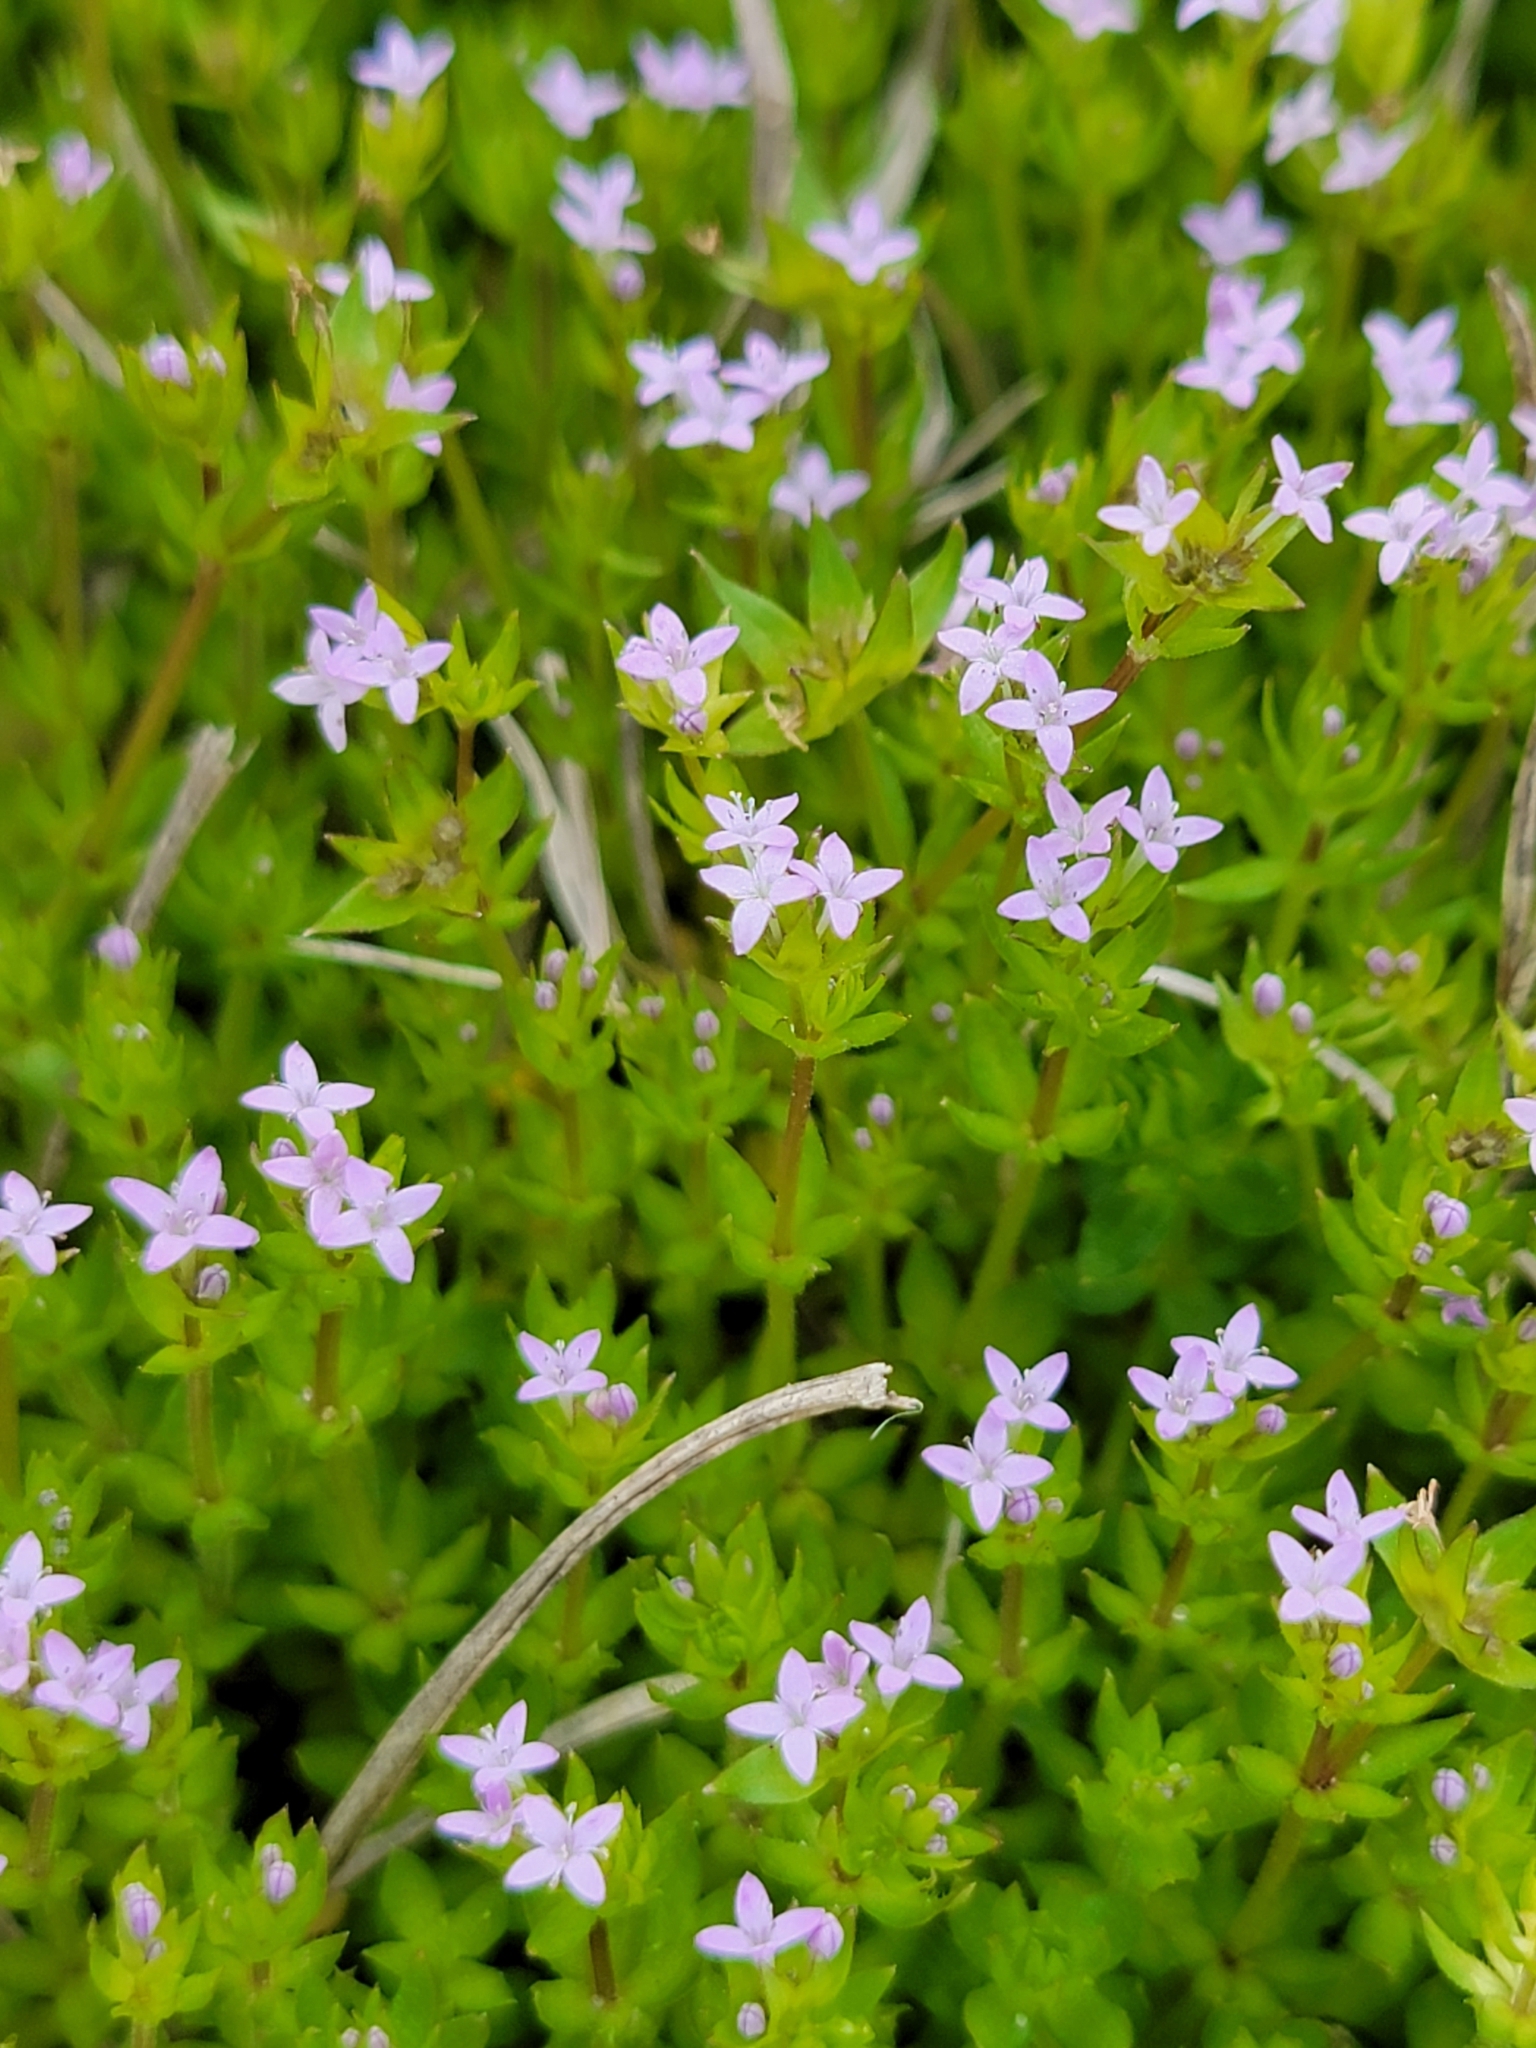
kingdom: Plantae
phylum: Tracheophyta
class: Magnoliopsida
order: Gentianales
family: Rubiaceae
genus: Sherardia
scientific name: Sherardia arvensis
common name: Field madder
